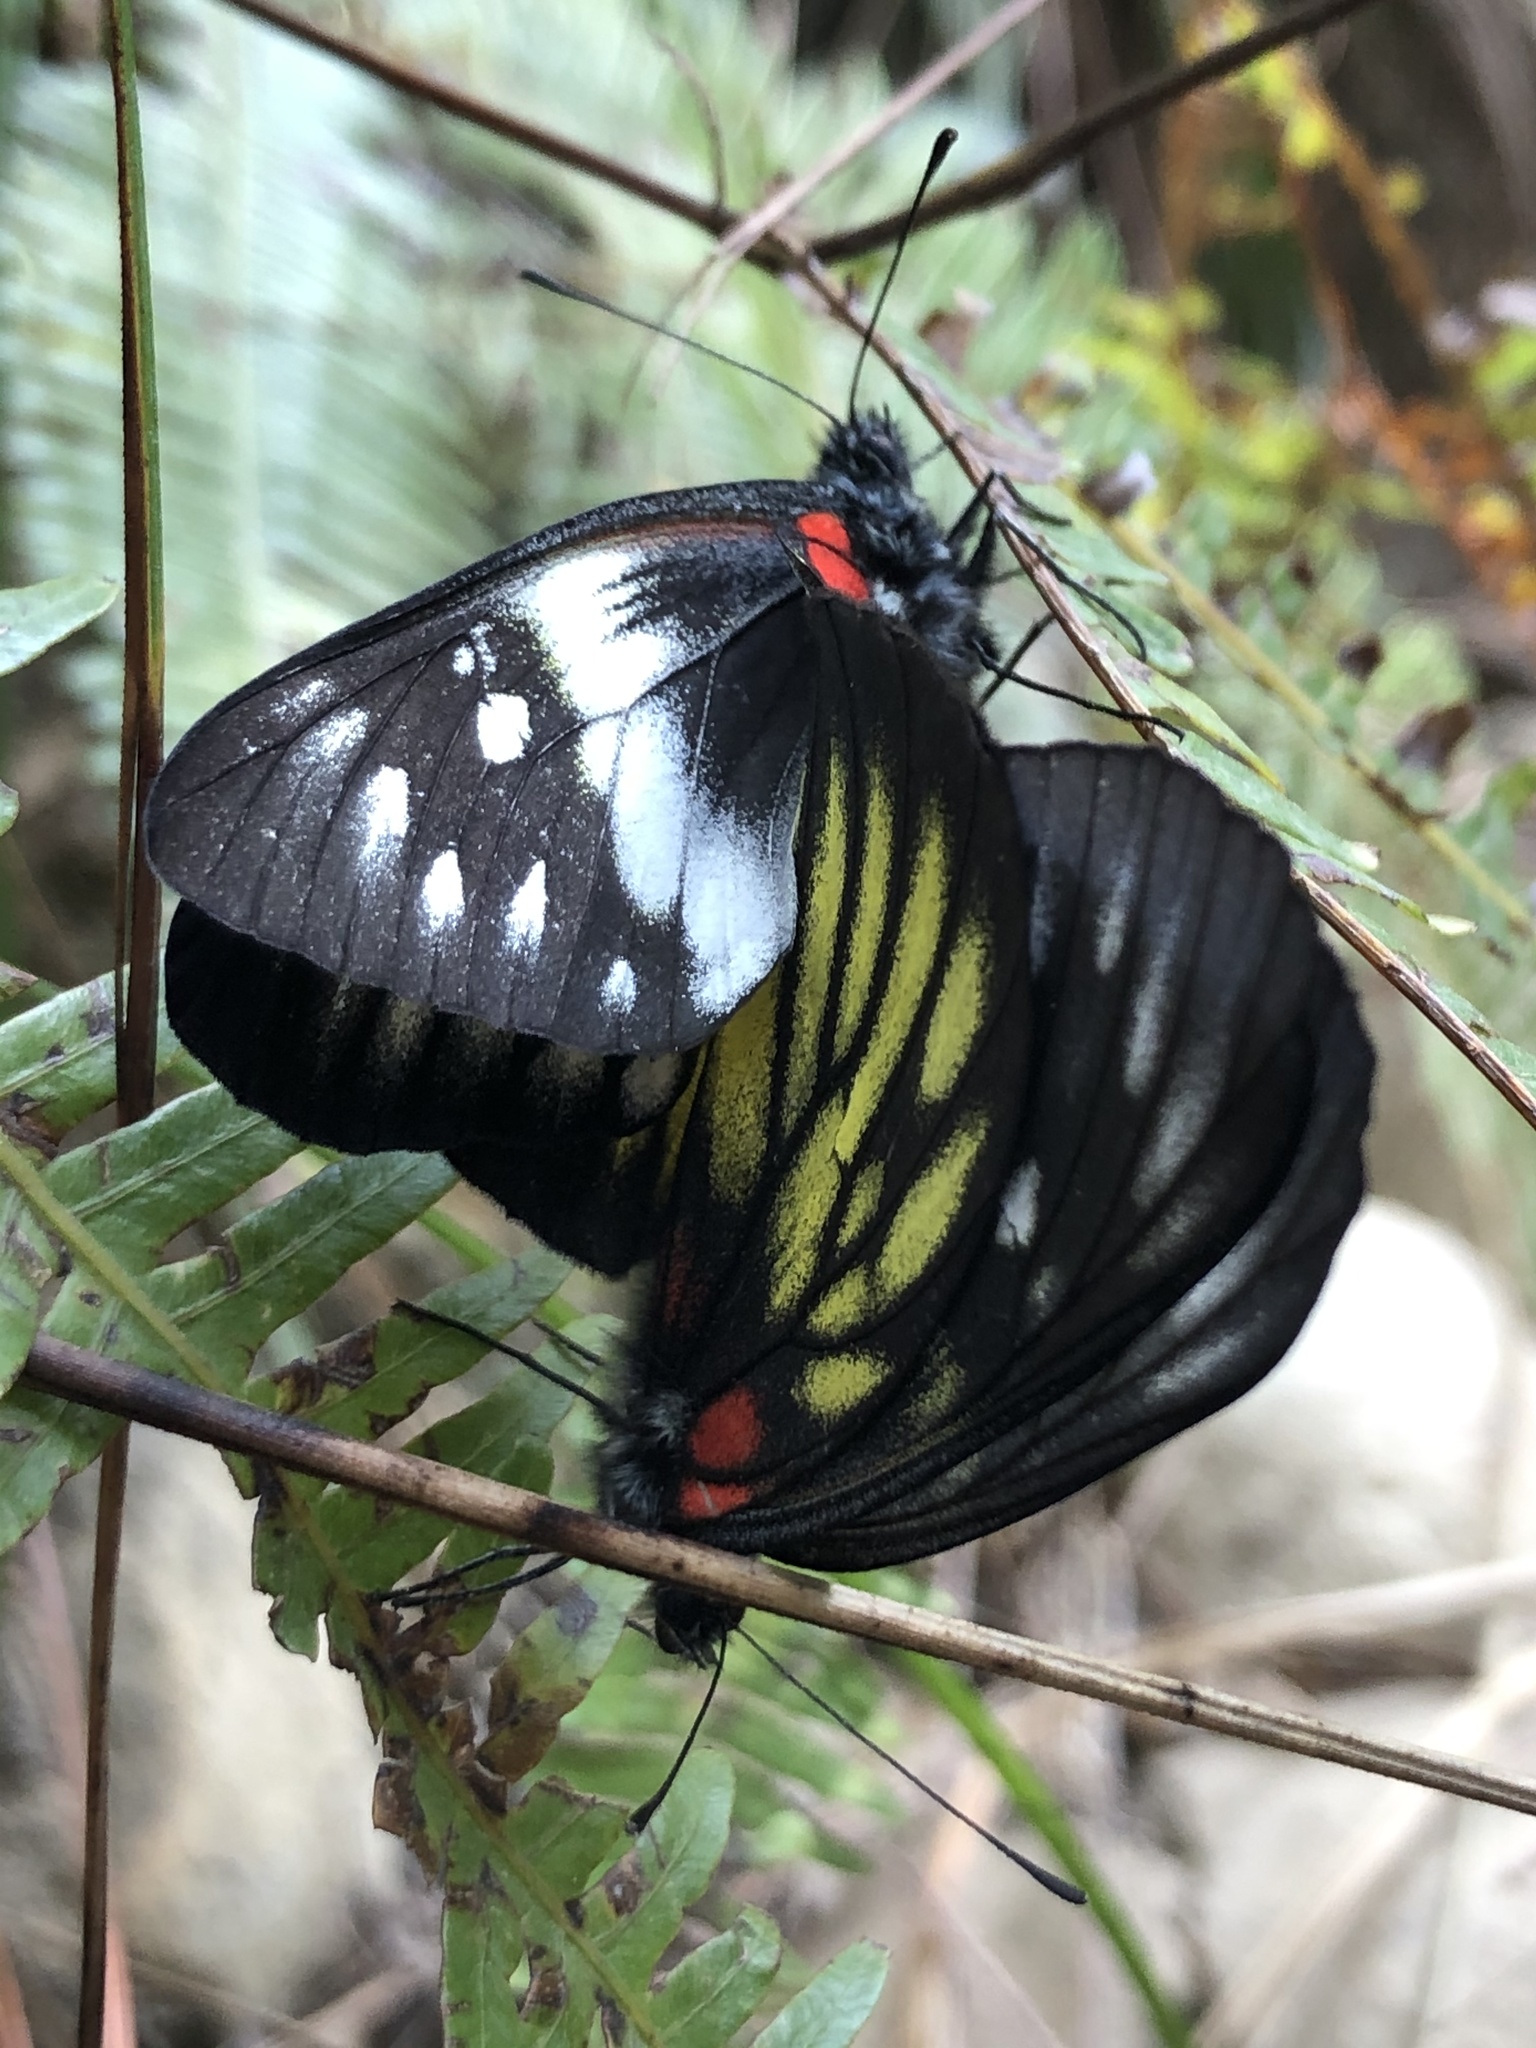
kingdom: Animalia
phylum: Arthropoda
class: Insecta
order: Lepidoptera
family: Pieridae
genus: Delias
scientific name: Delias pasithoe
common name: Red-base jezebel
